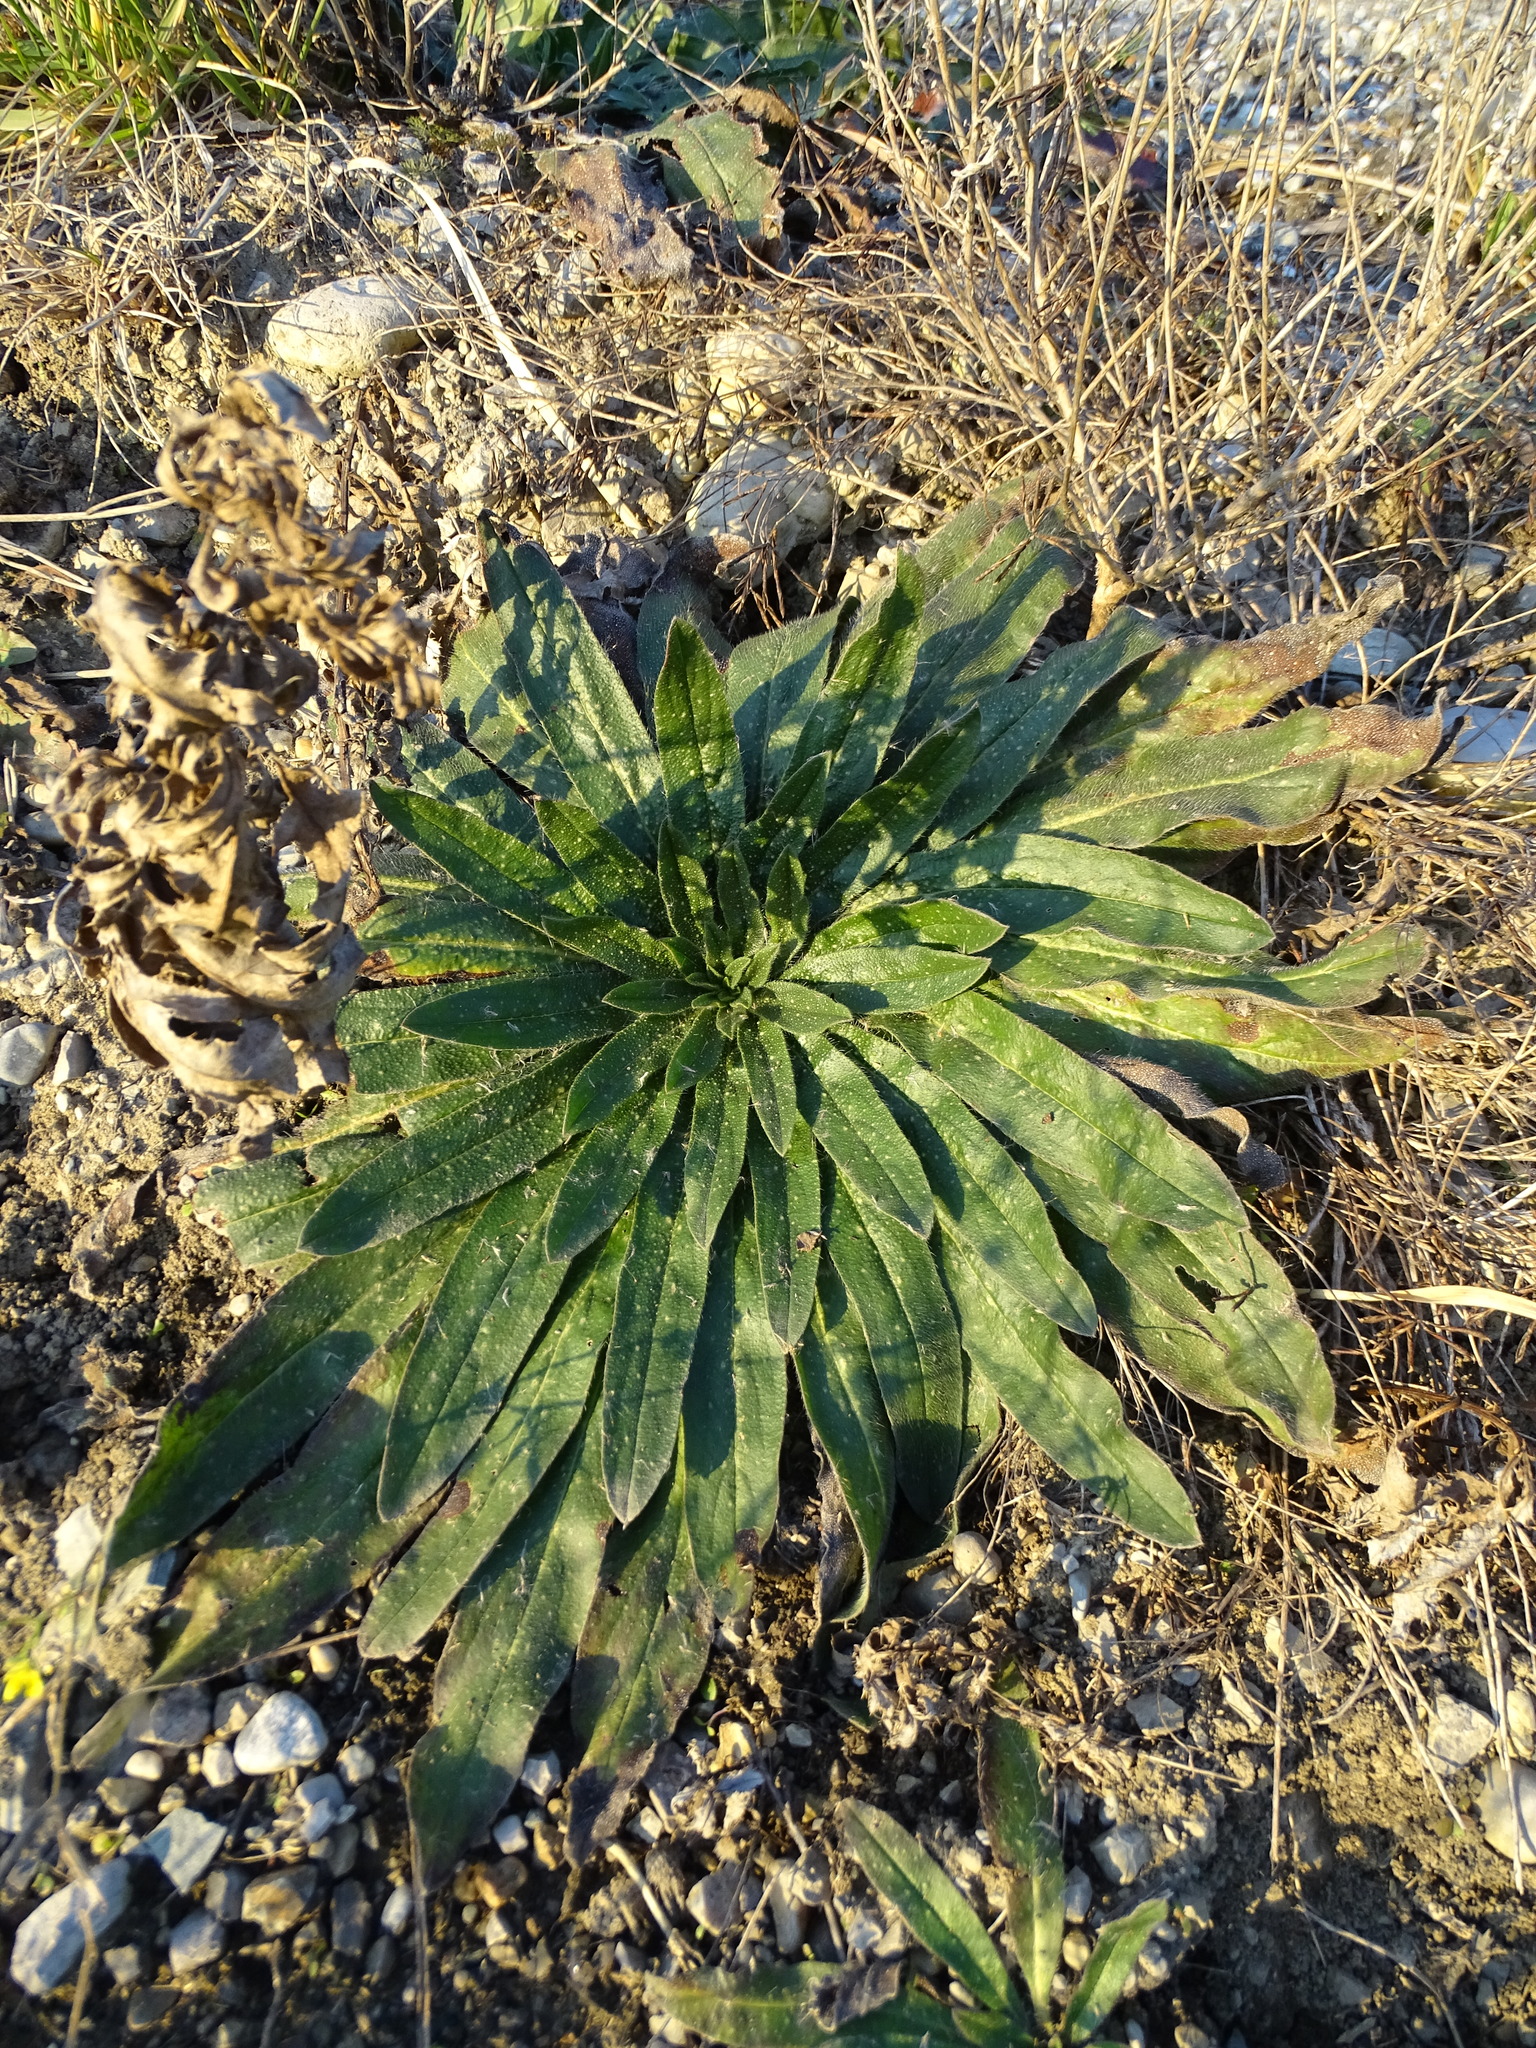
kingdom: Plantae
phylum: Tracheophyta
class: Magnoliopsida
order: Boraginales
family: Boraginaceae
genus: Echium
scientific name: Echium vulgare
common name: Common viper's bugloss
